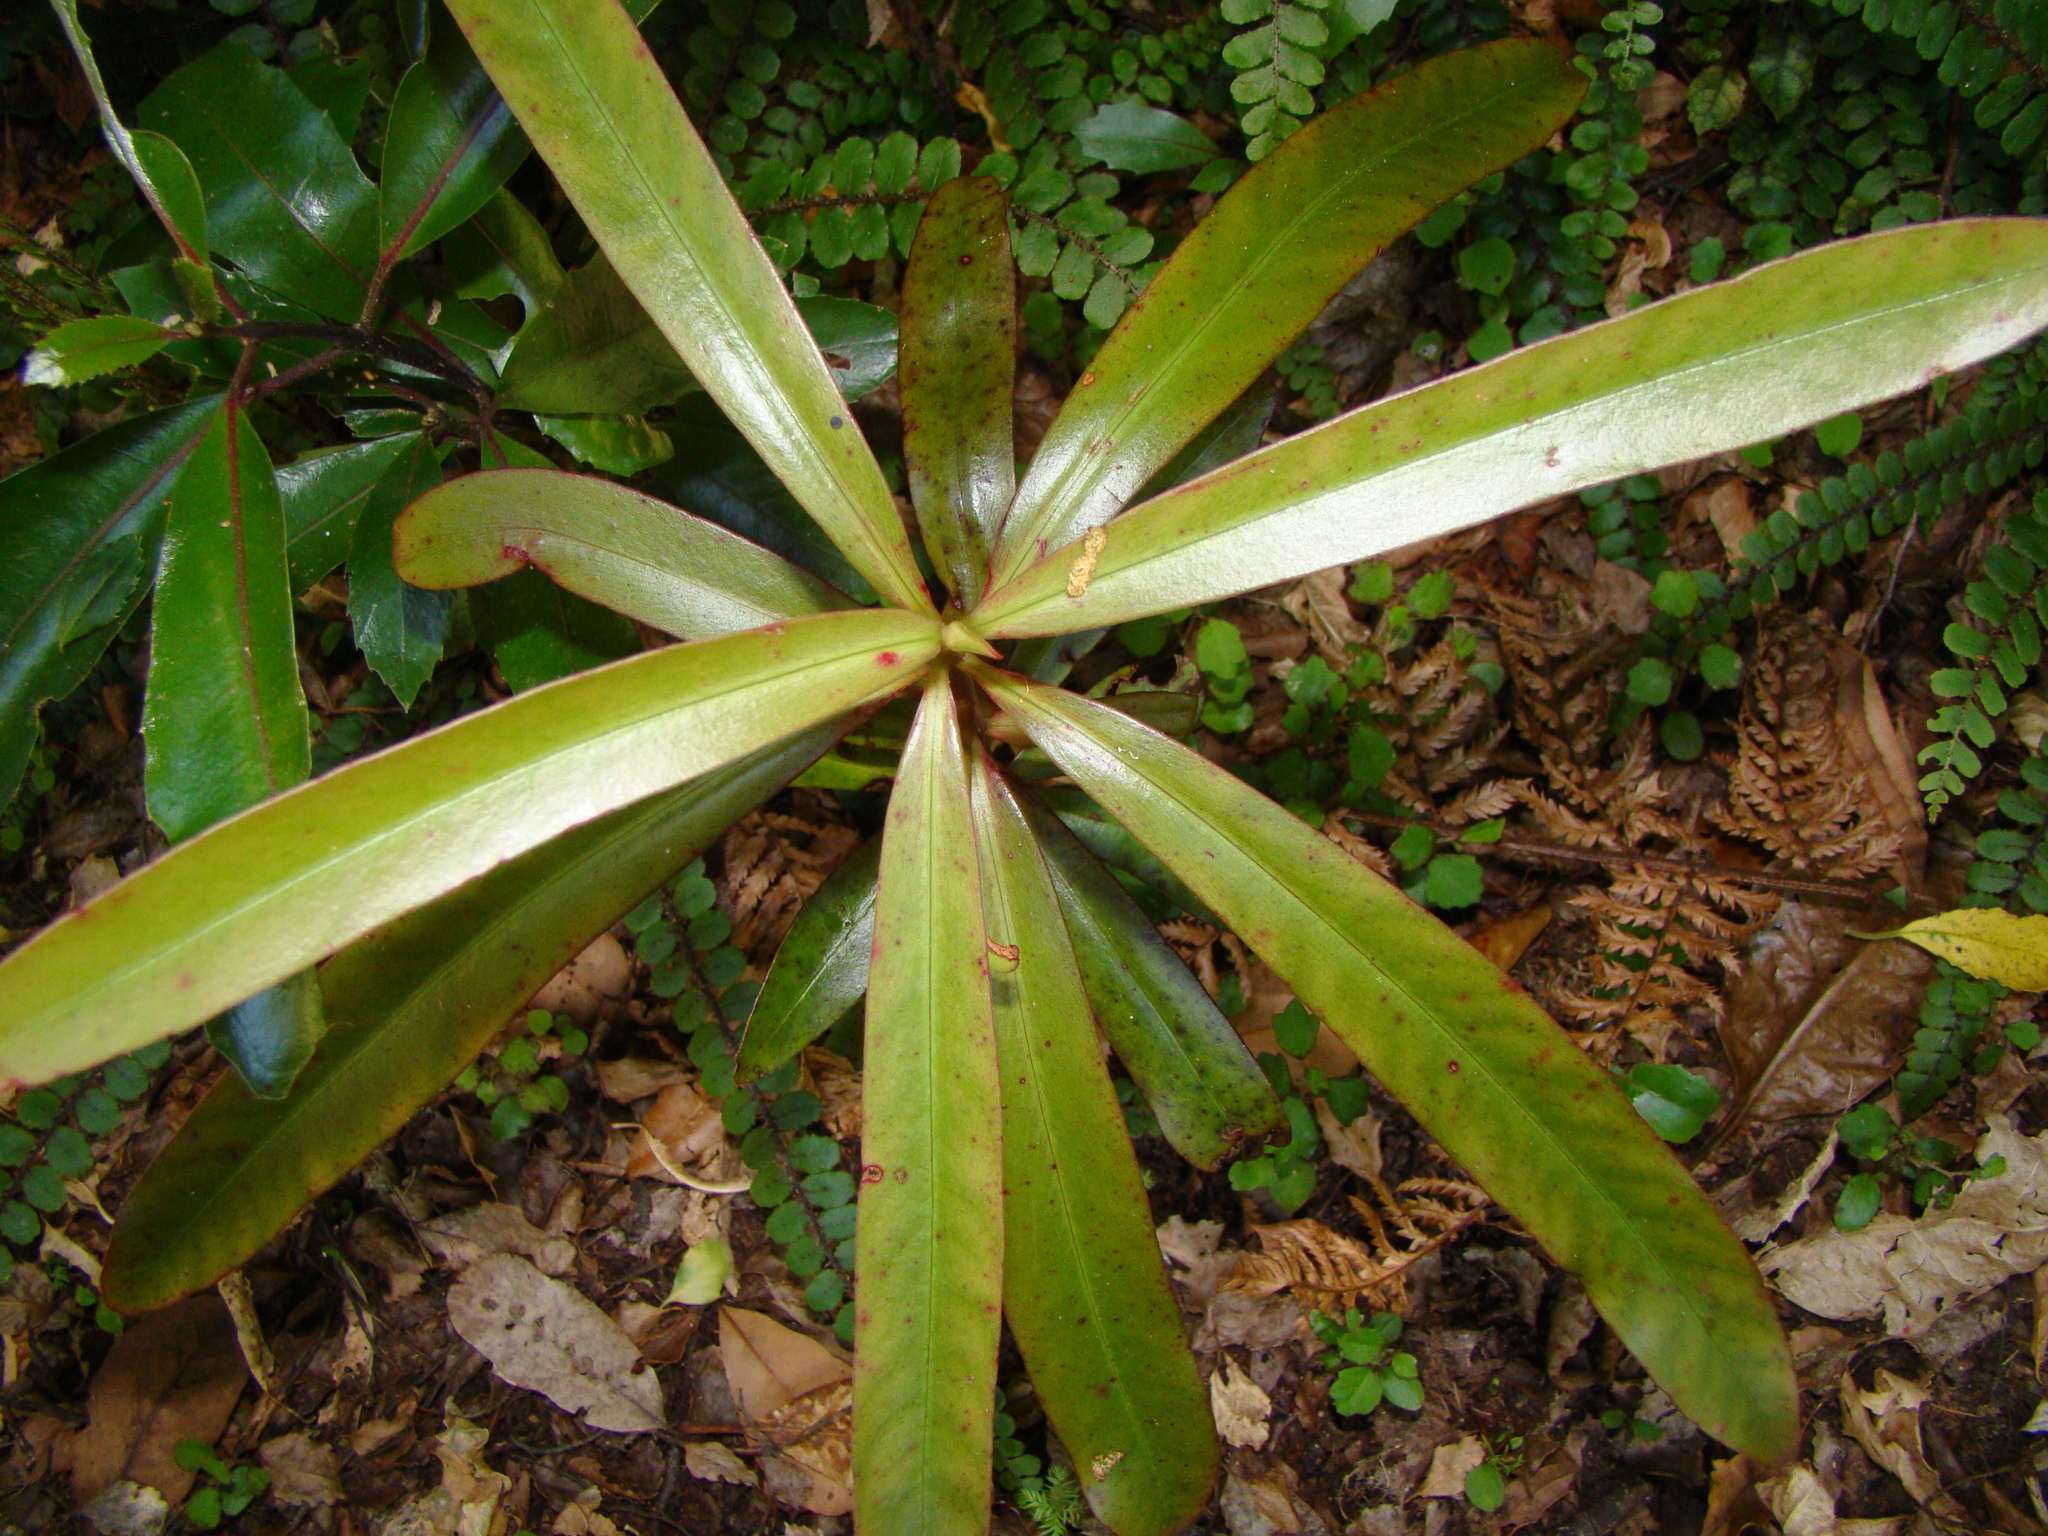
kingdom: Plantae
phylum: Tracheophyta
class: Magnoliopsida
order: Ericales
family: Primulaceae
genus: Myrsine
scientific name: Myrsine salicina
